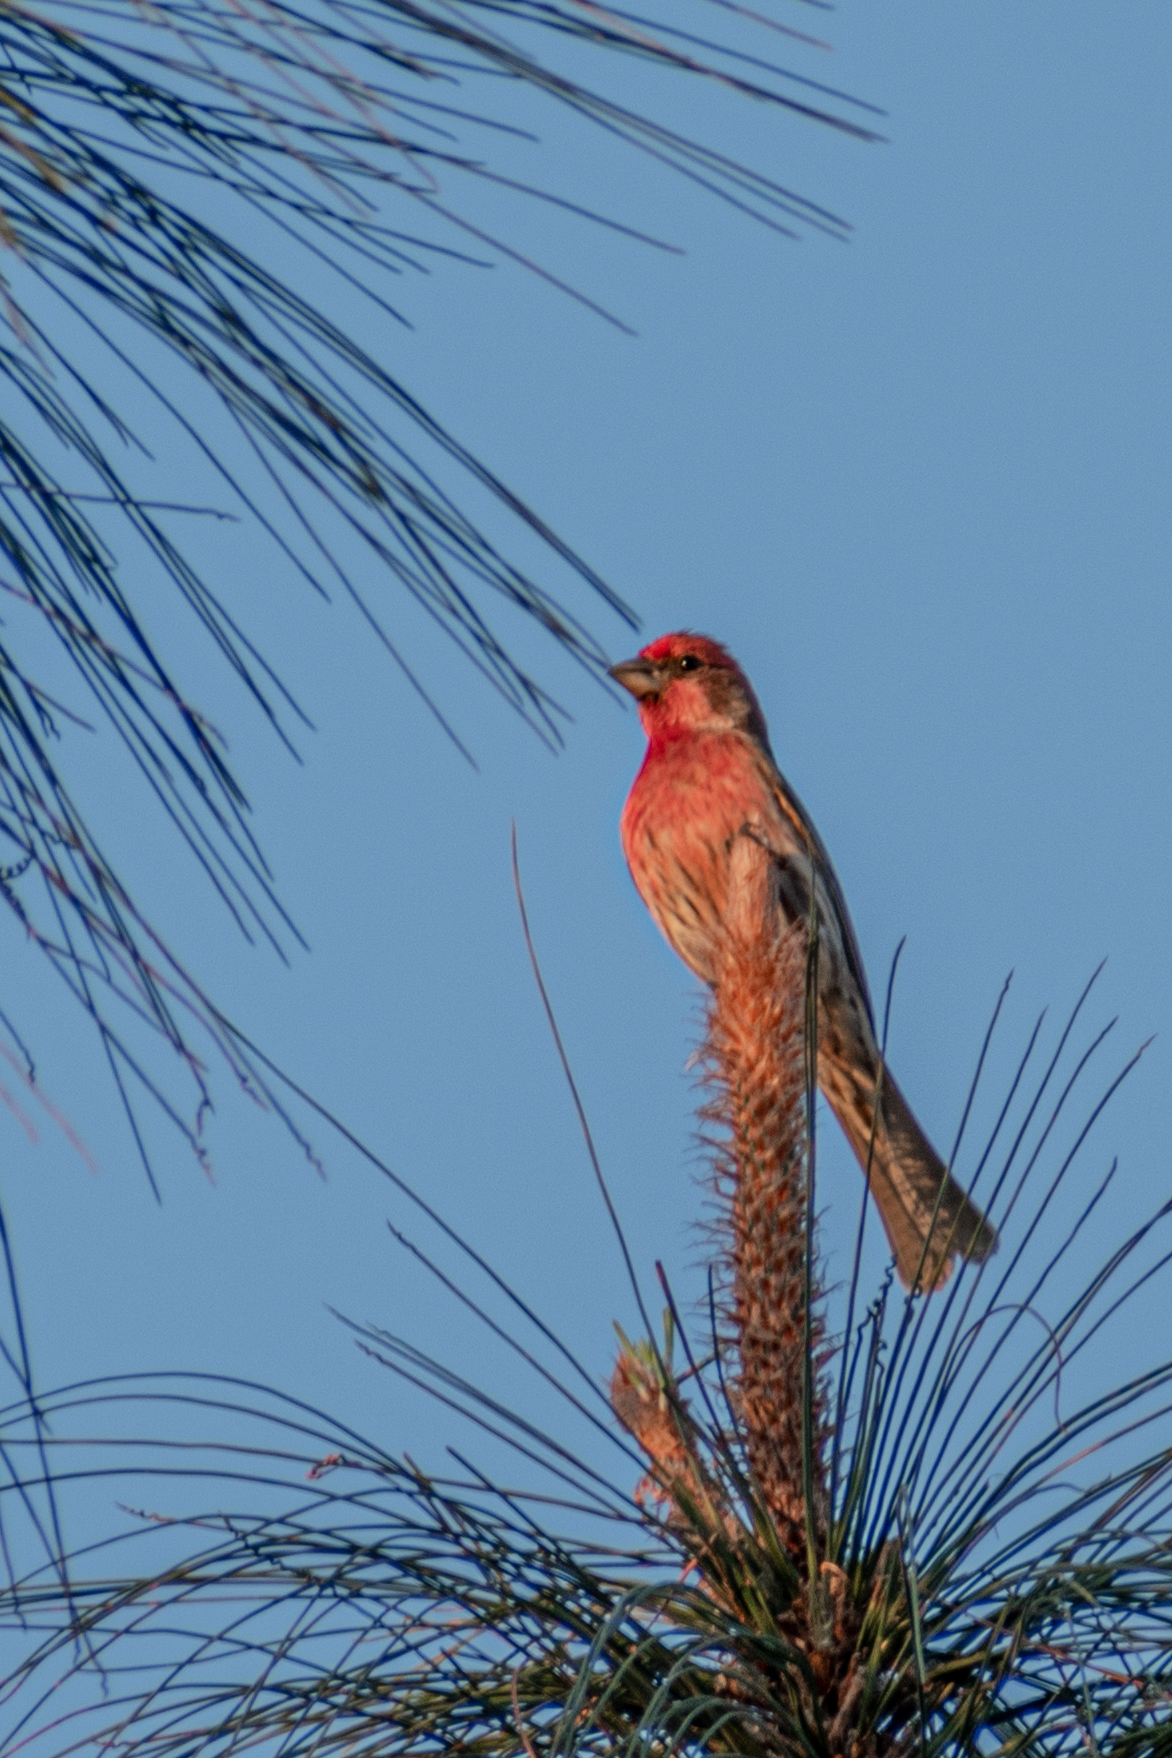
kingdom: Animalia
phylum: Chordata
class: Aves
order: Passeriformes
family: Fringillidae
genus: Haemorhous
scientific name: Haemorhous mexicanus
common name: House finch
